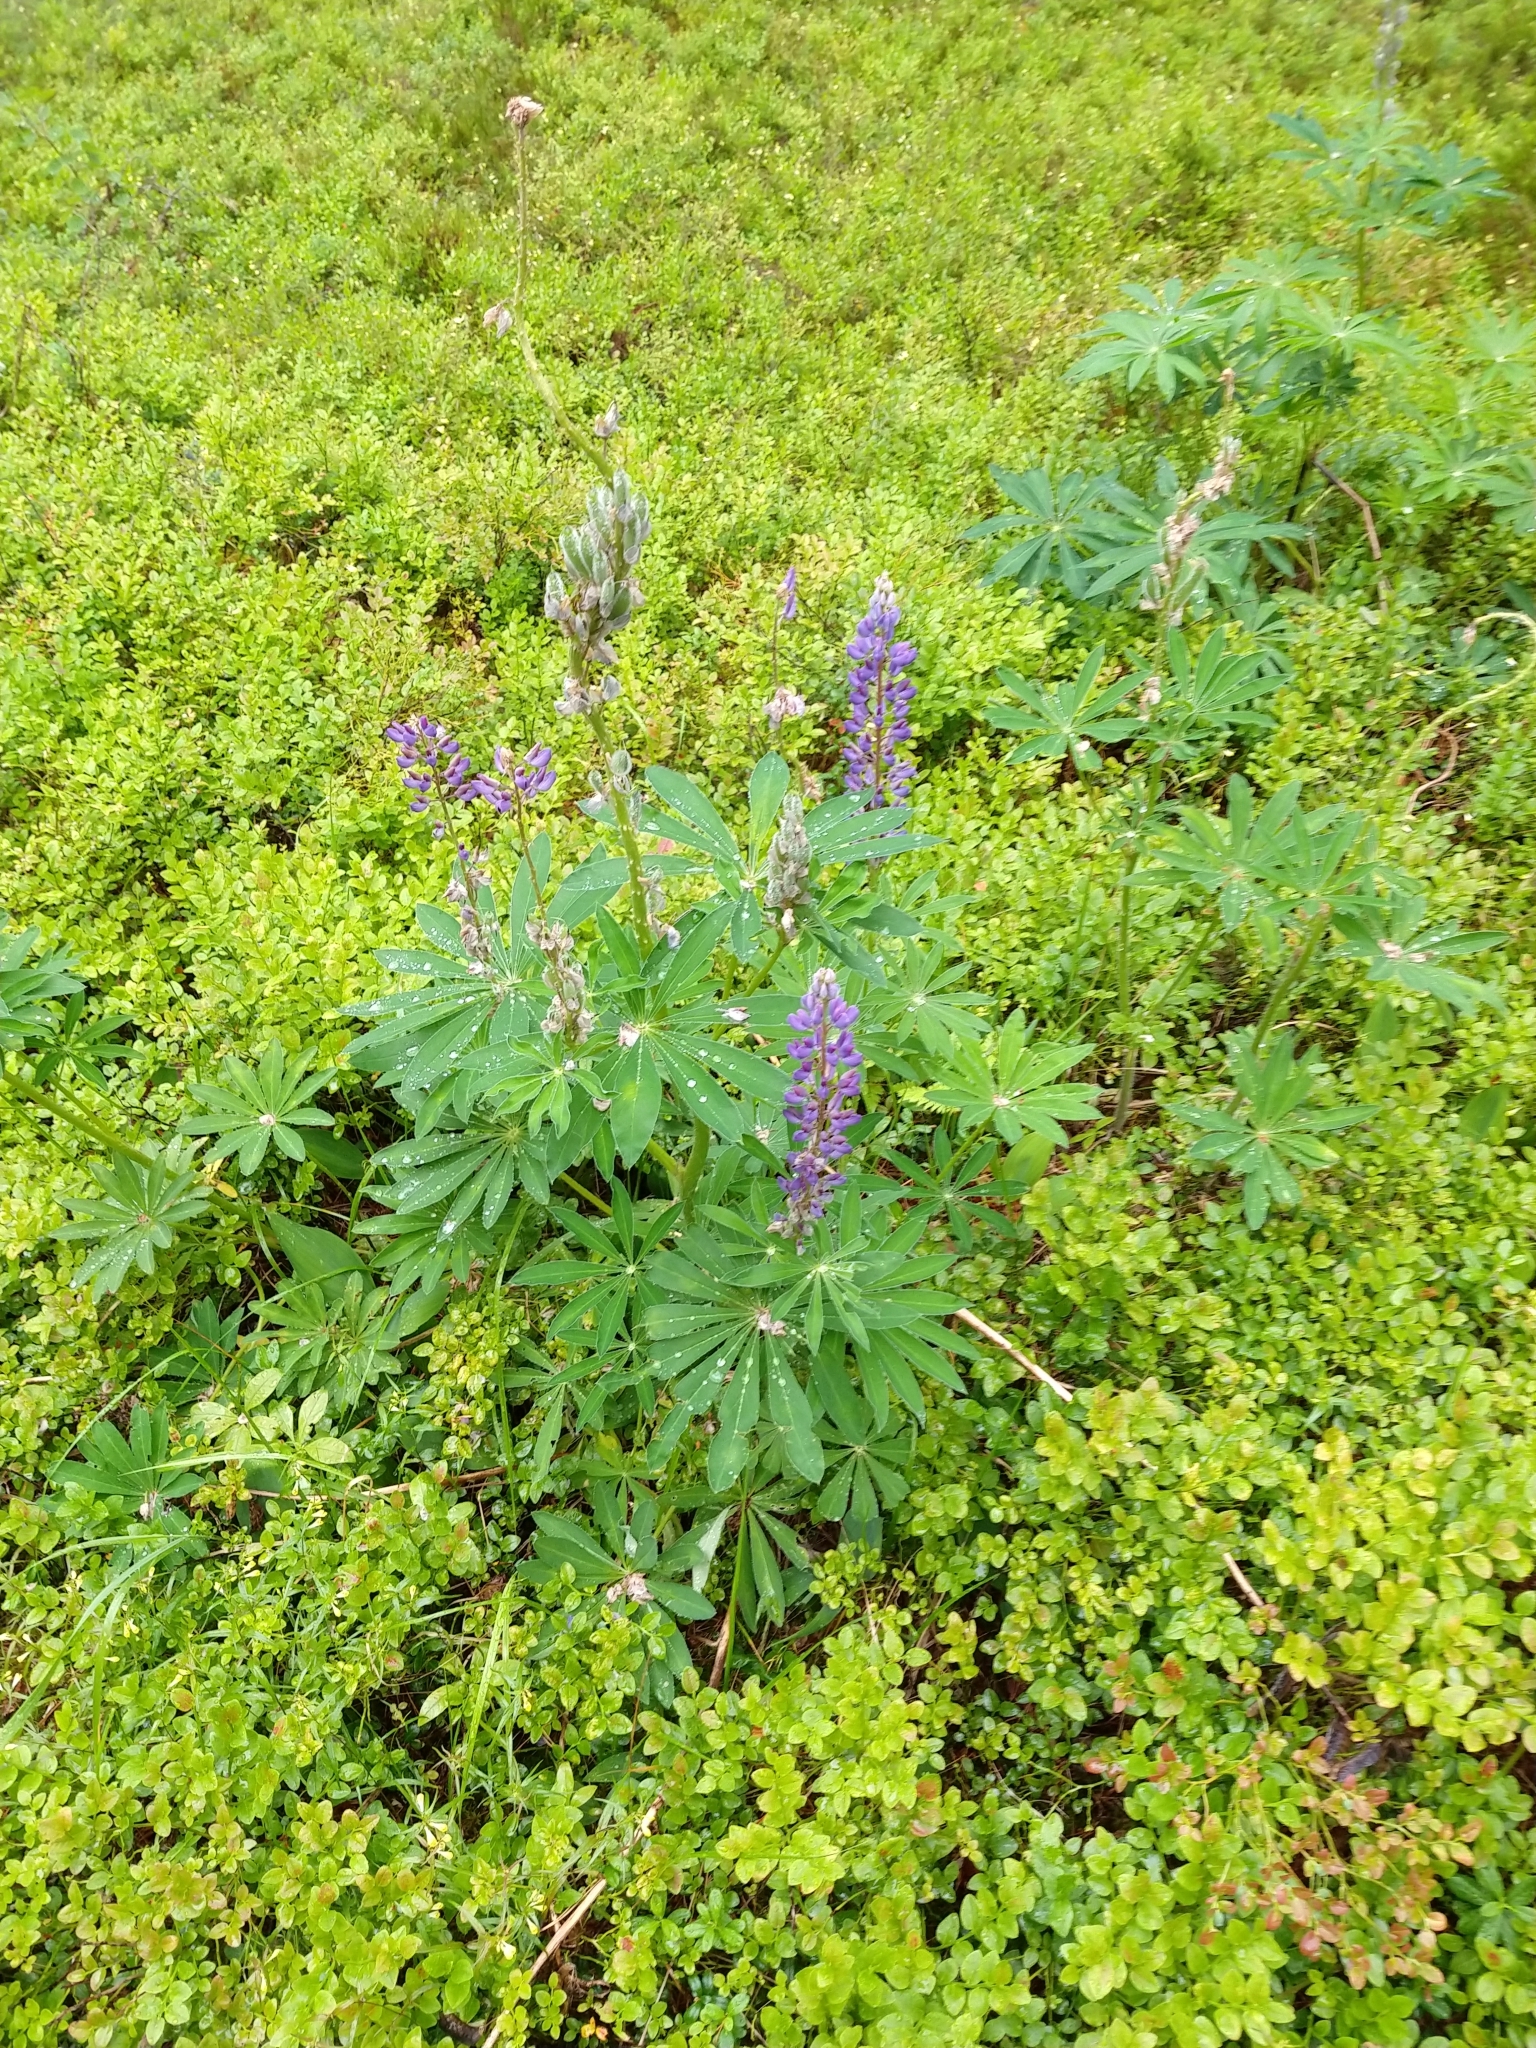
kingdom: Plantae
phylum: Tracheophyta
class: Magnoliopsida
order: Fabales
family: Fabaceae
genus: Lupinus
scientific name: Lupinus polyphyllus
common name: Garden lupin
